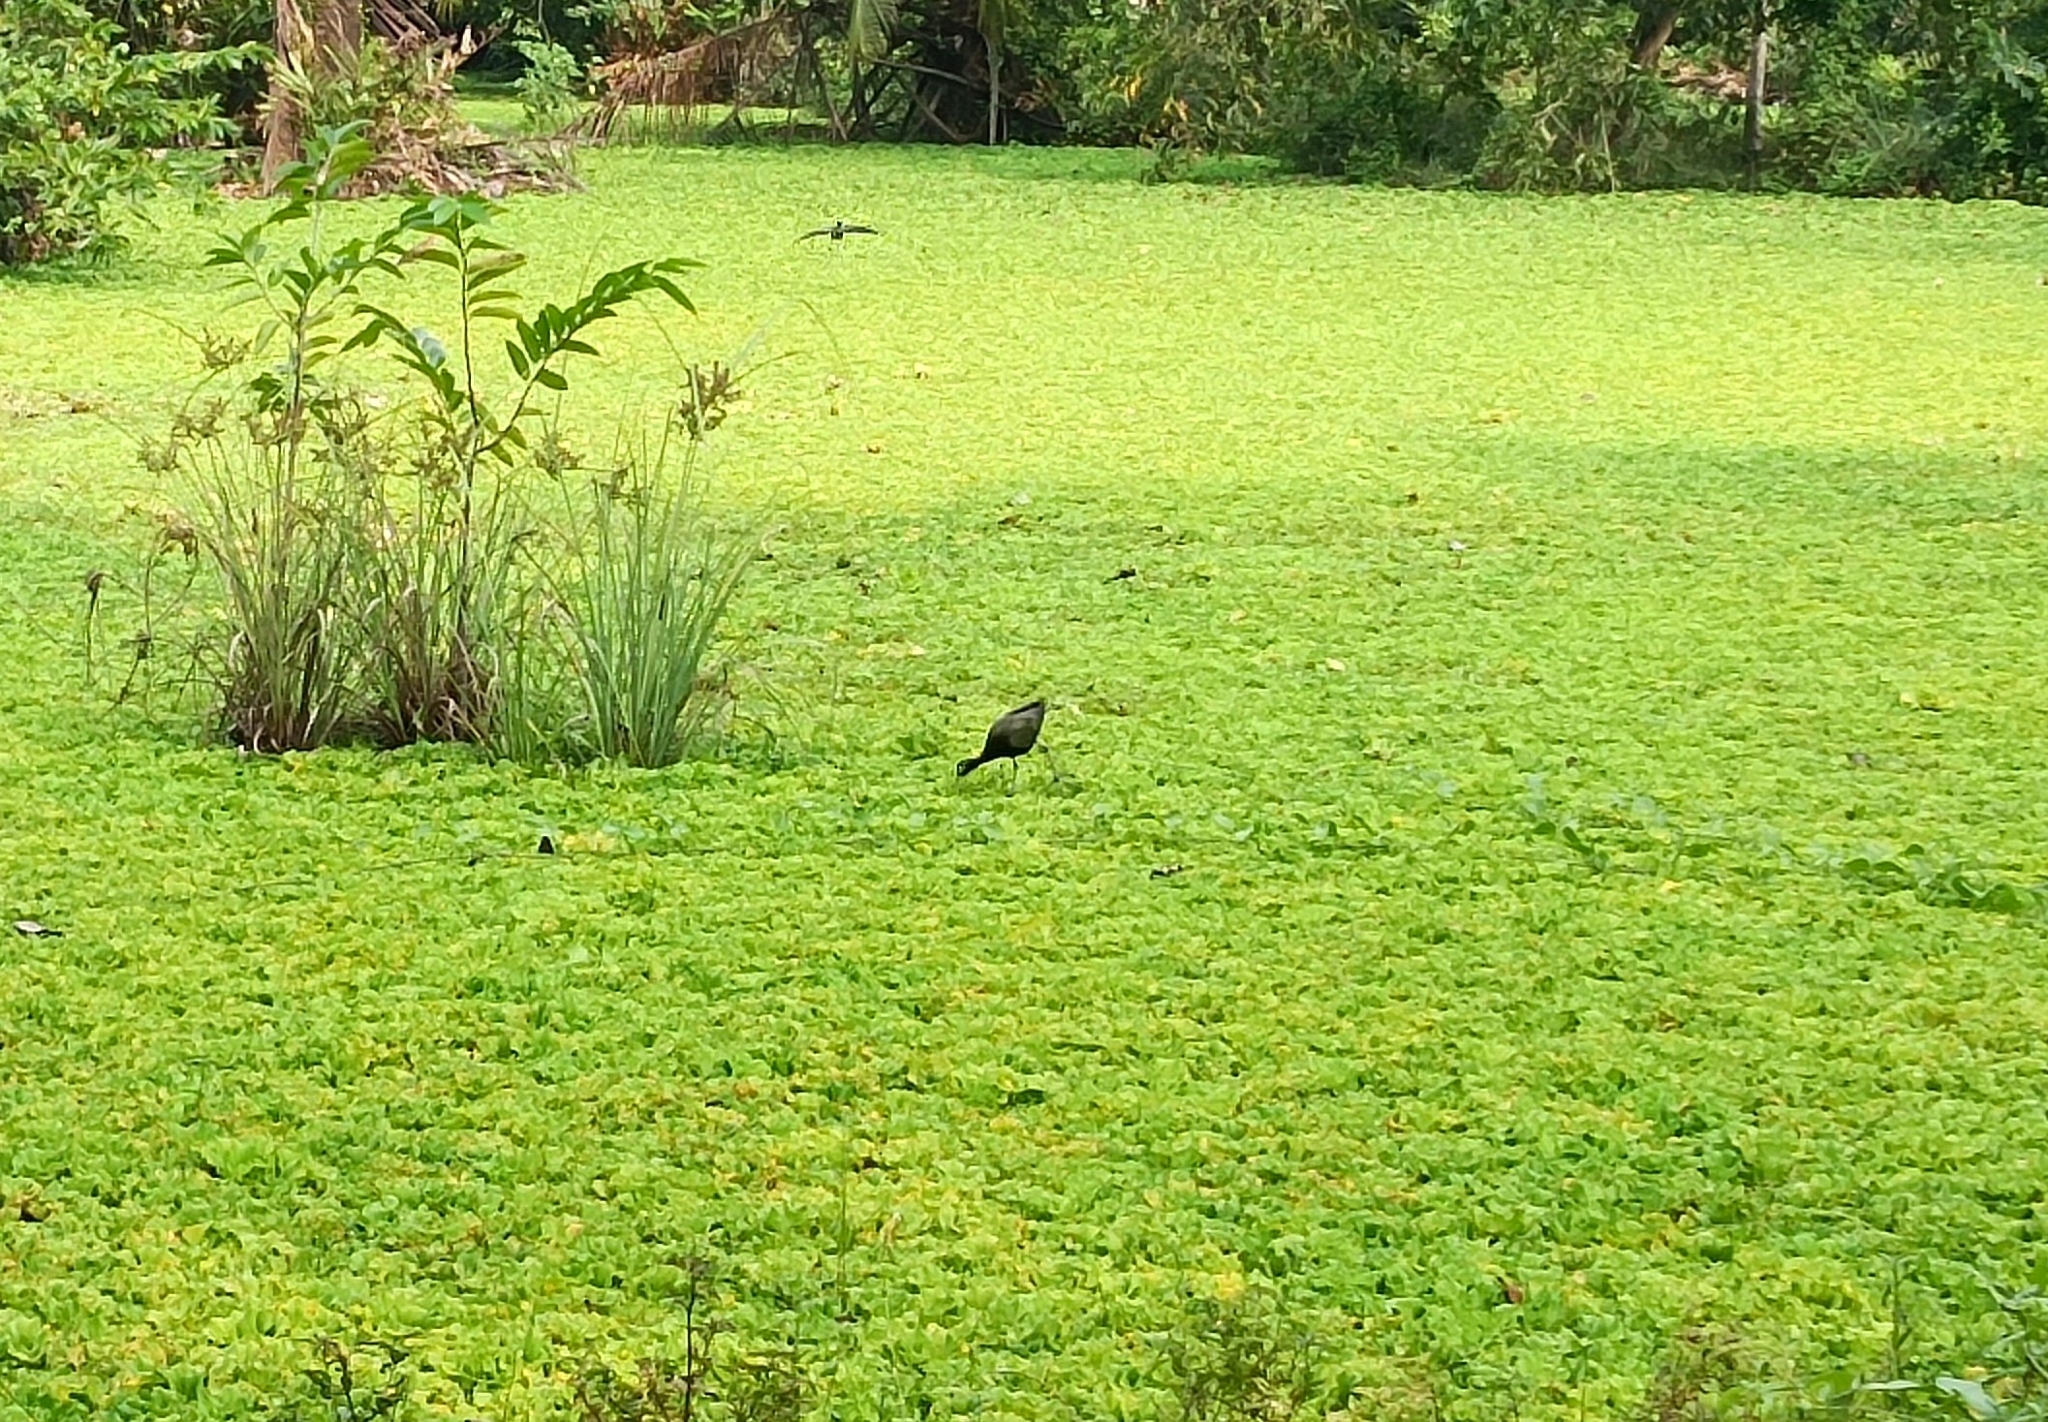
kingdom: Animalia
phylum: Chordata
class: Aves
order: Charadriiformes
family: Jacanidae
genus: Metopidius
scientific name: Metopidius indicus
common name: Bronze-winged jacana
